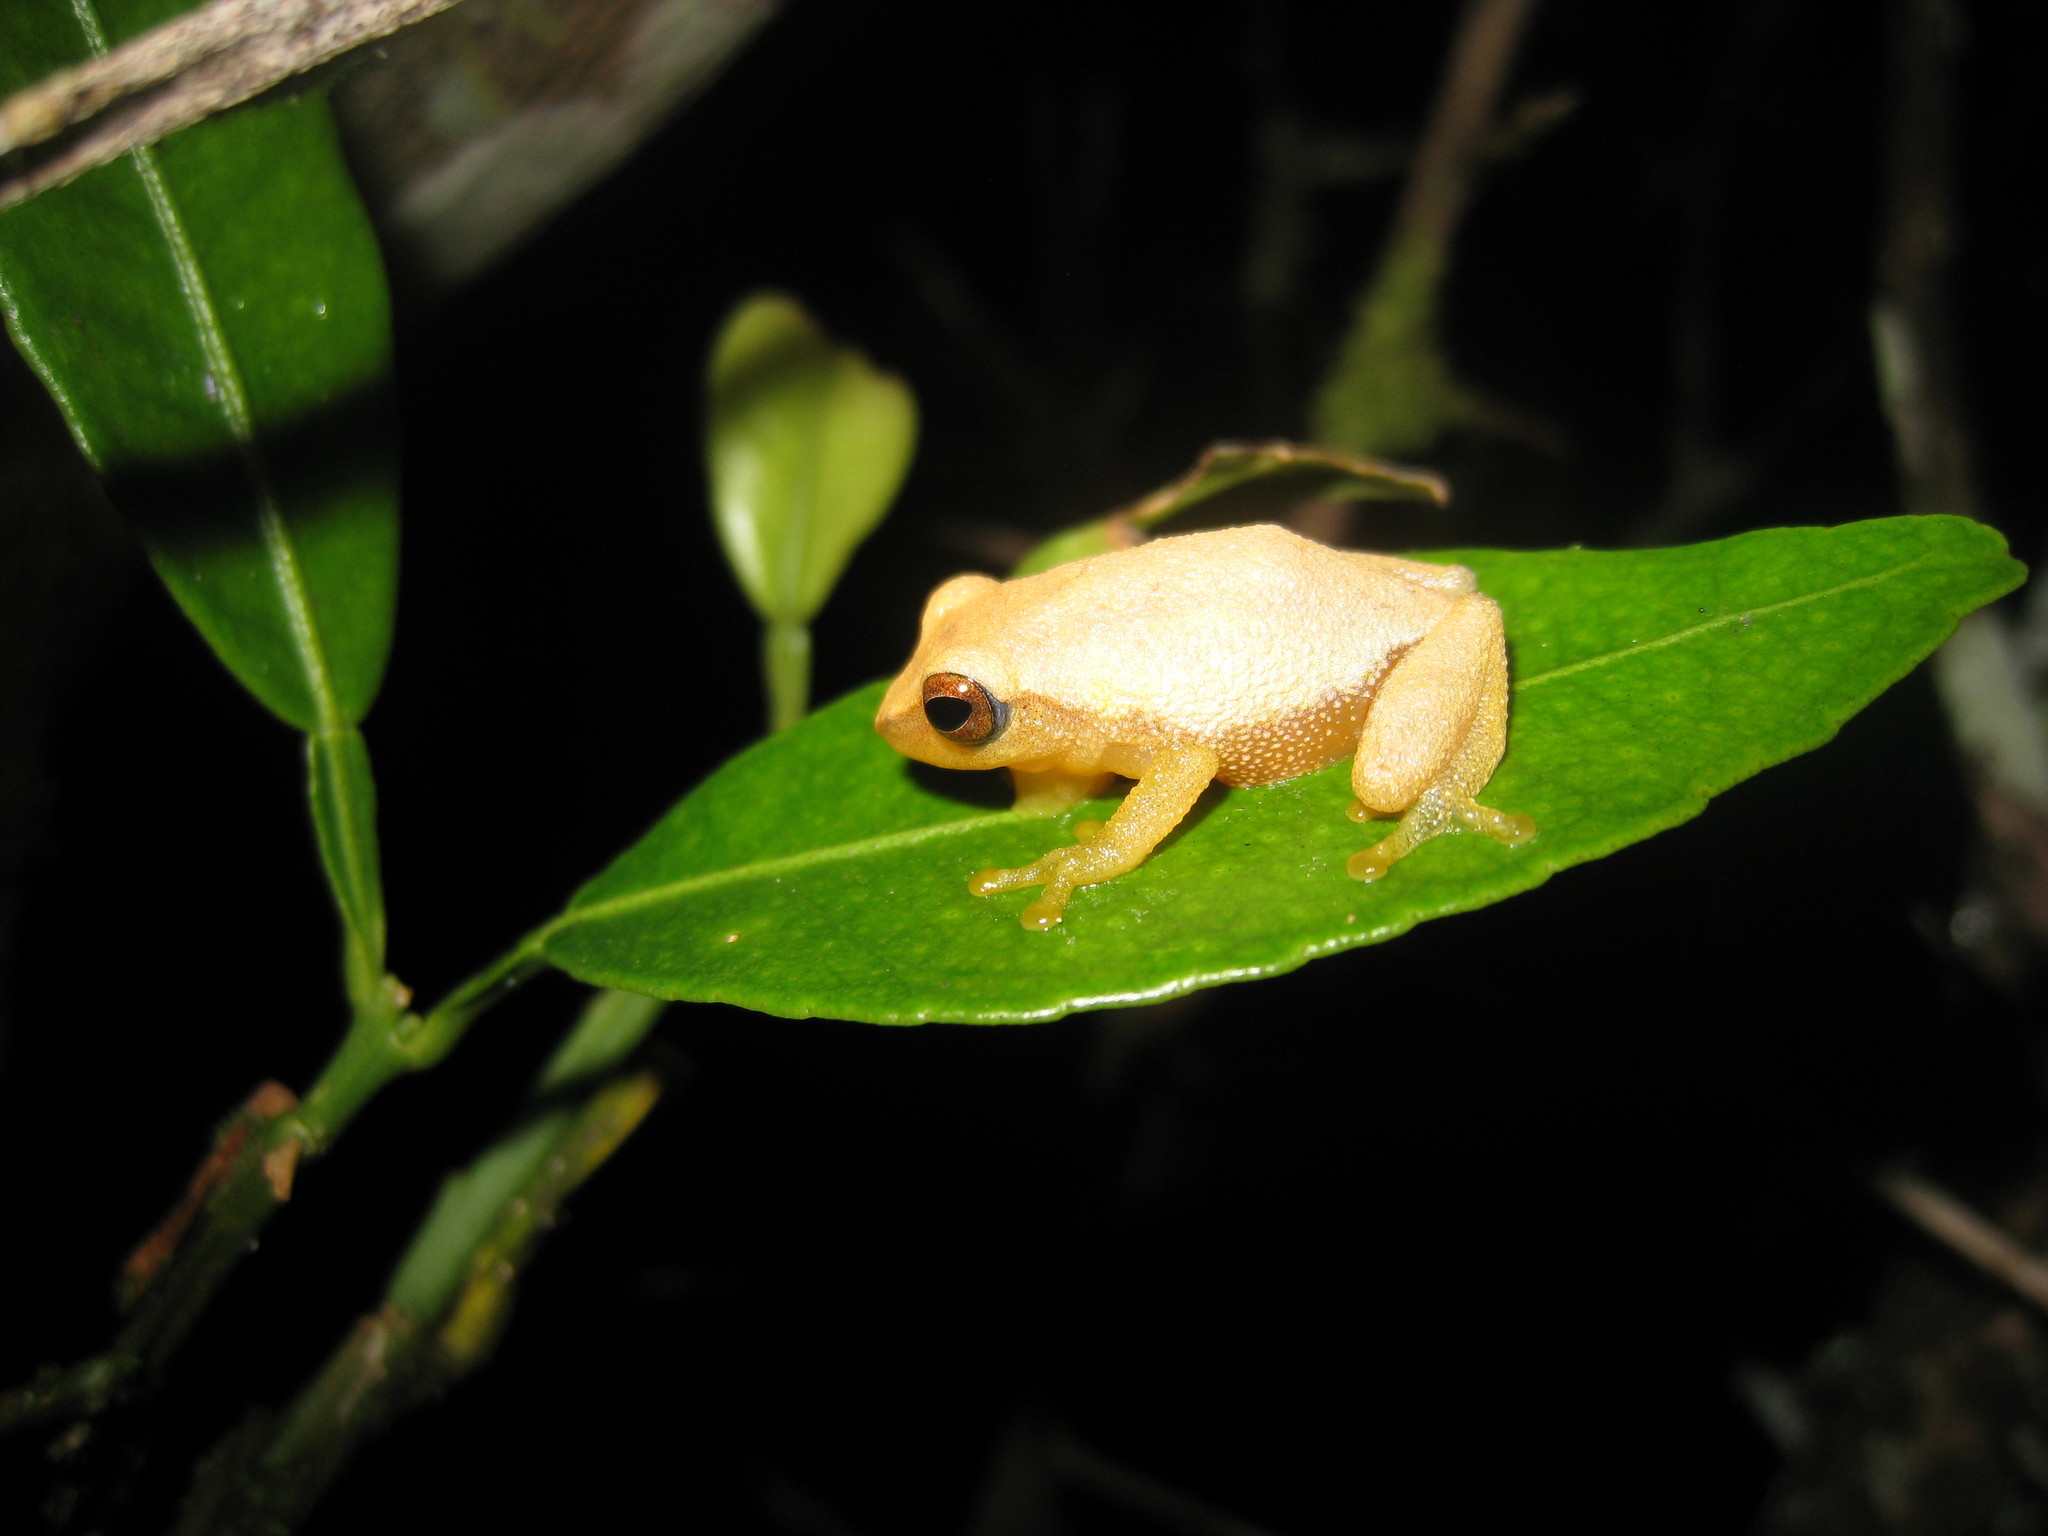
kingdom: Animalia
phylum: Chordata
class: Amphibia
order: Anura
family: Rhacophoridae
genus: Raorchestes
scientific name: Raorchestes akroparallagi
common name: Variable bush frog
